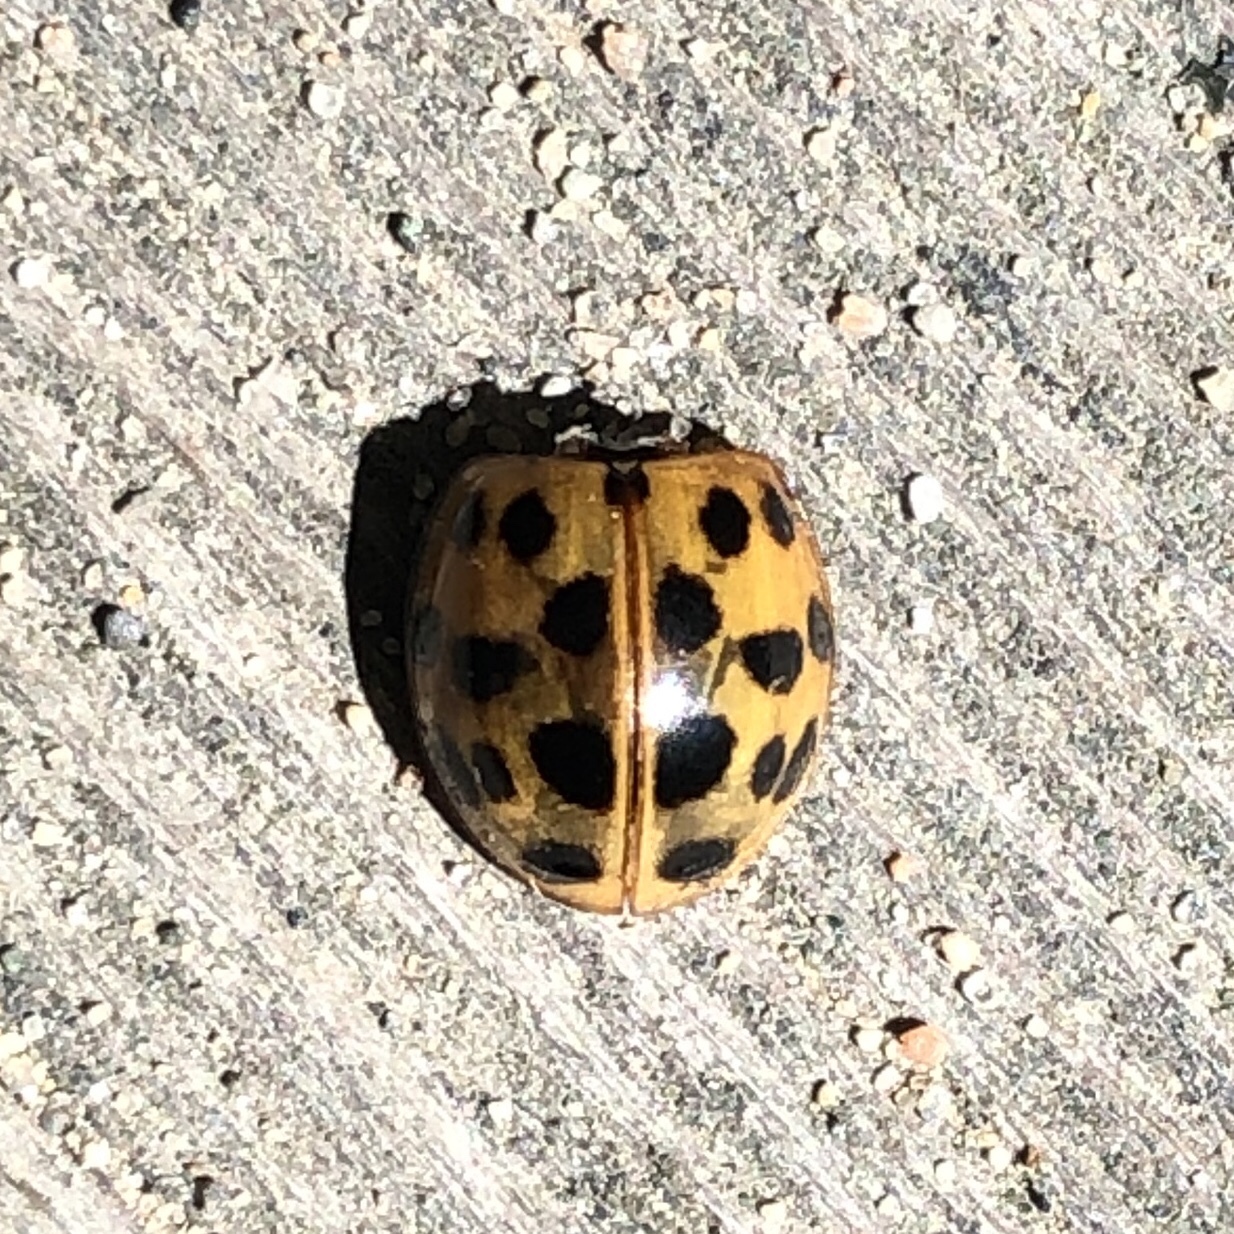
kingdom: Animalia
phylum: Arthropoda
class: Insecta
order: Coleoptera
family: Coccinellidae
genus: Harmonia
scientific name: Harmonia axyridis
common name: Harlequin ladybird
